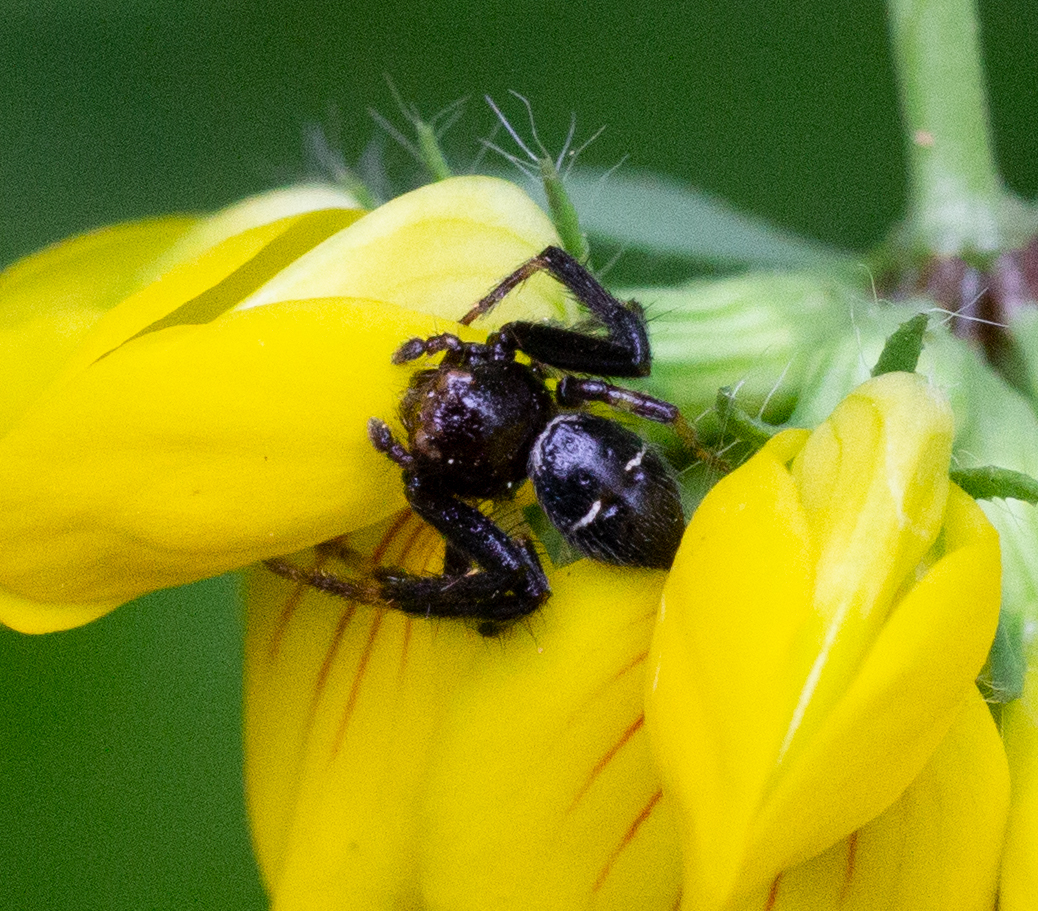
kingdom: Animalia
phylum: Arthropoda
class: Arachnida
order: Araneae
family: Thomisidae
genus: Synema
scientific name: Synema globosum
